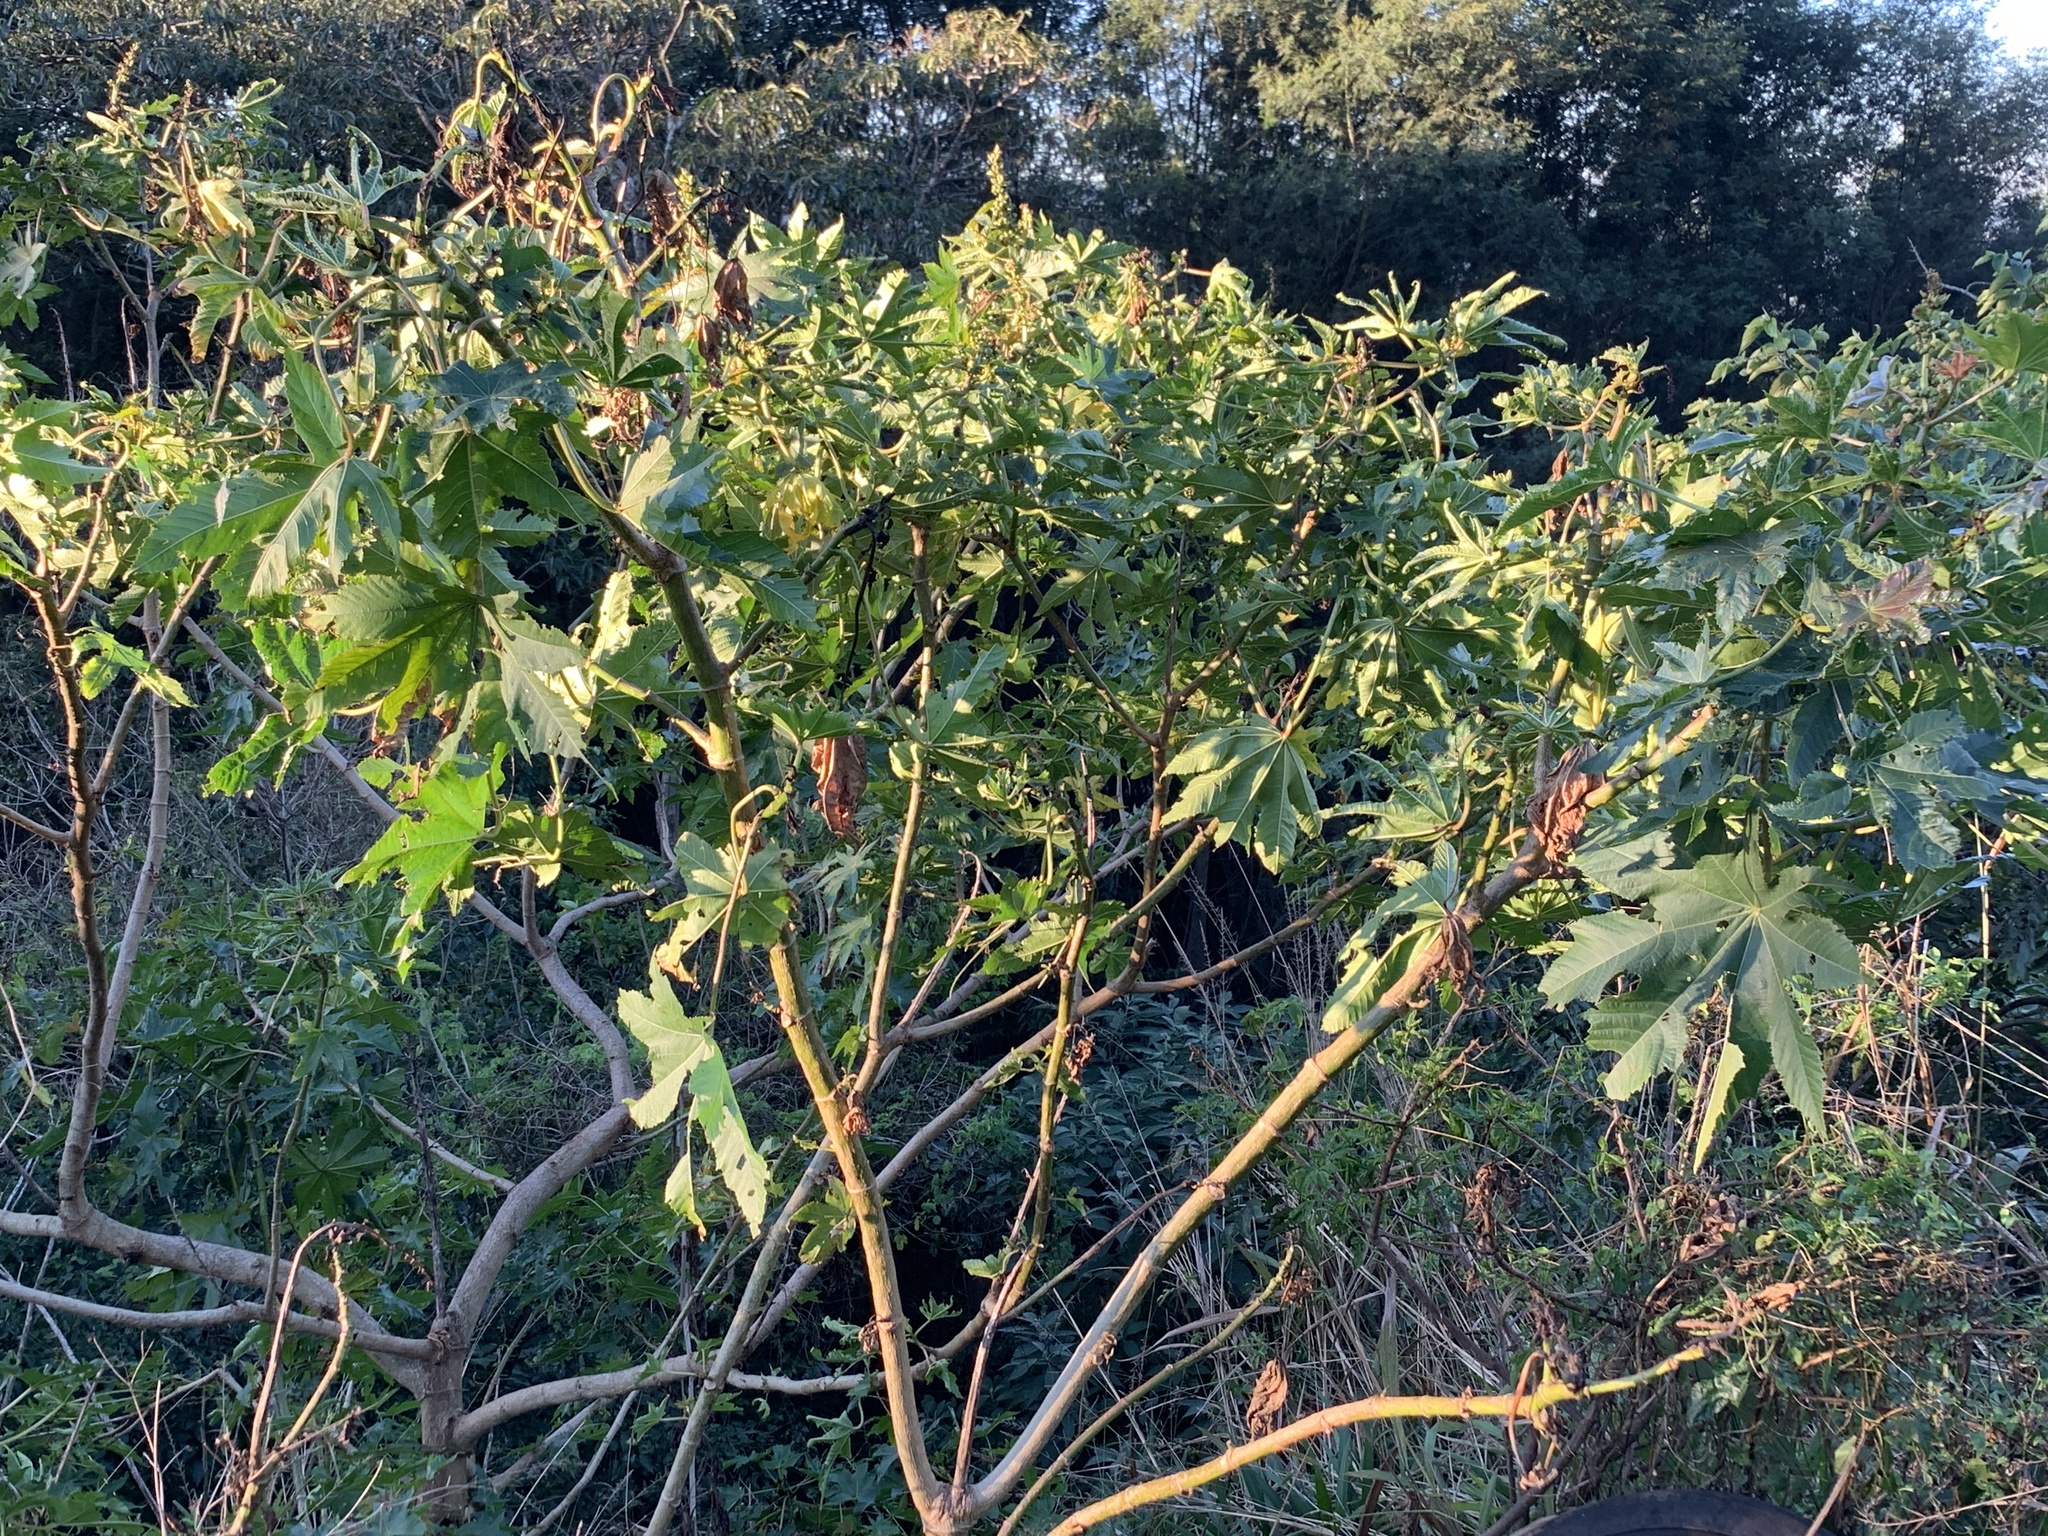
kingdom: Plantae
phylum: Tracheophyta
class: Magnoliopsida
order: Malpighiales
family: Euphorbiaceae
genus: Ricinus
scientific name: Ricinus communis
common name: Castor-oil-plant
